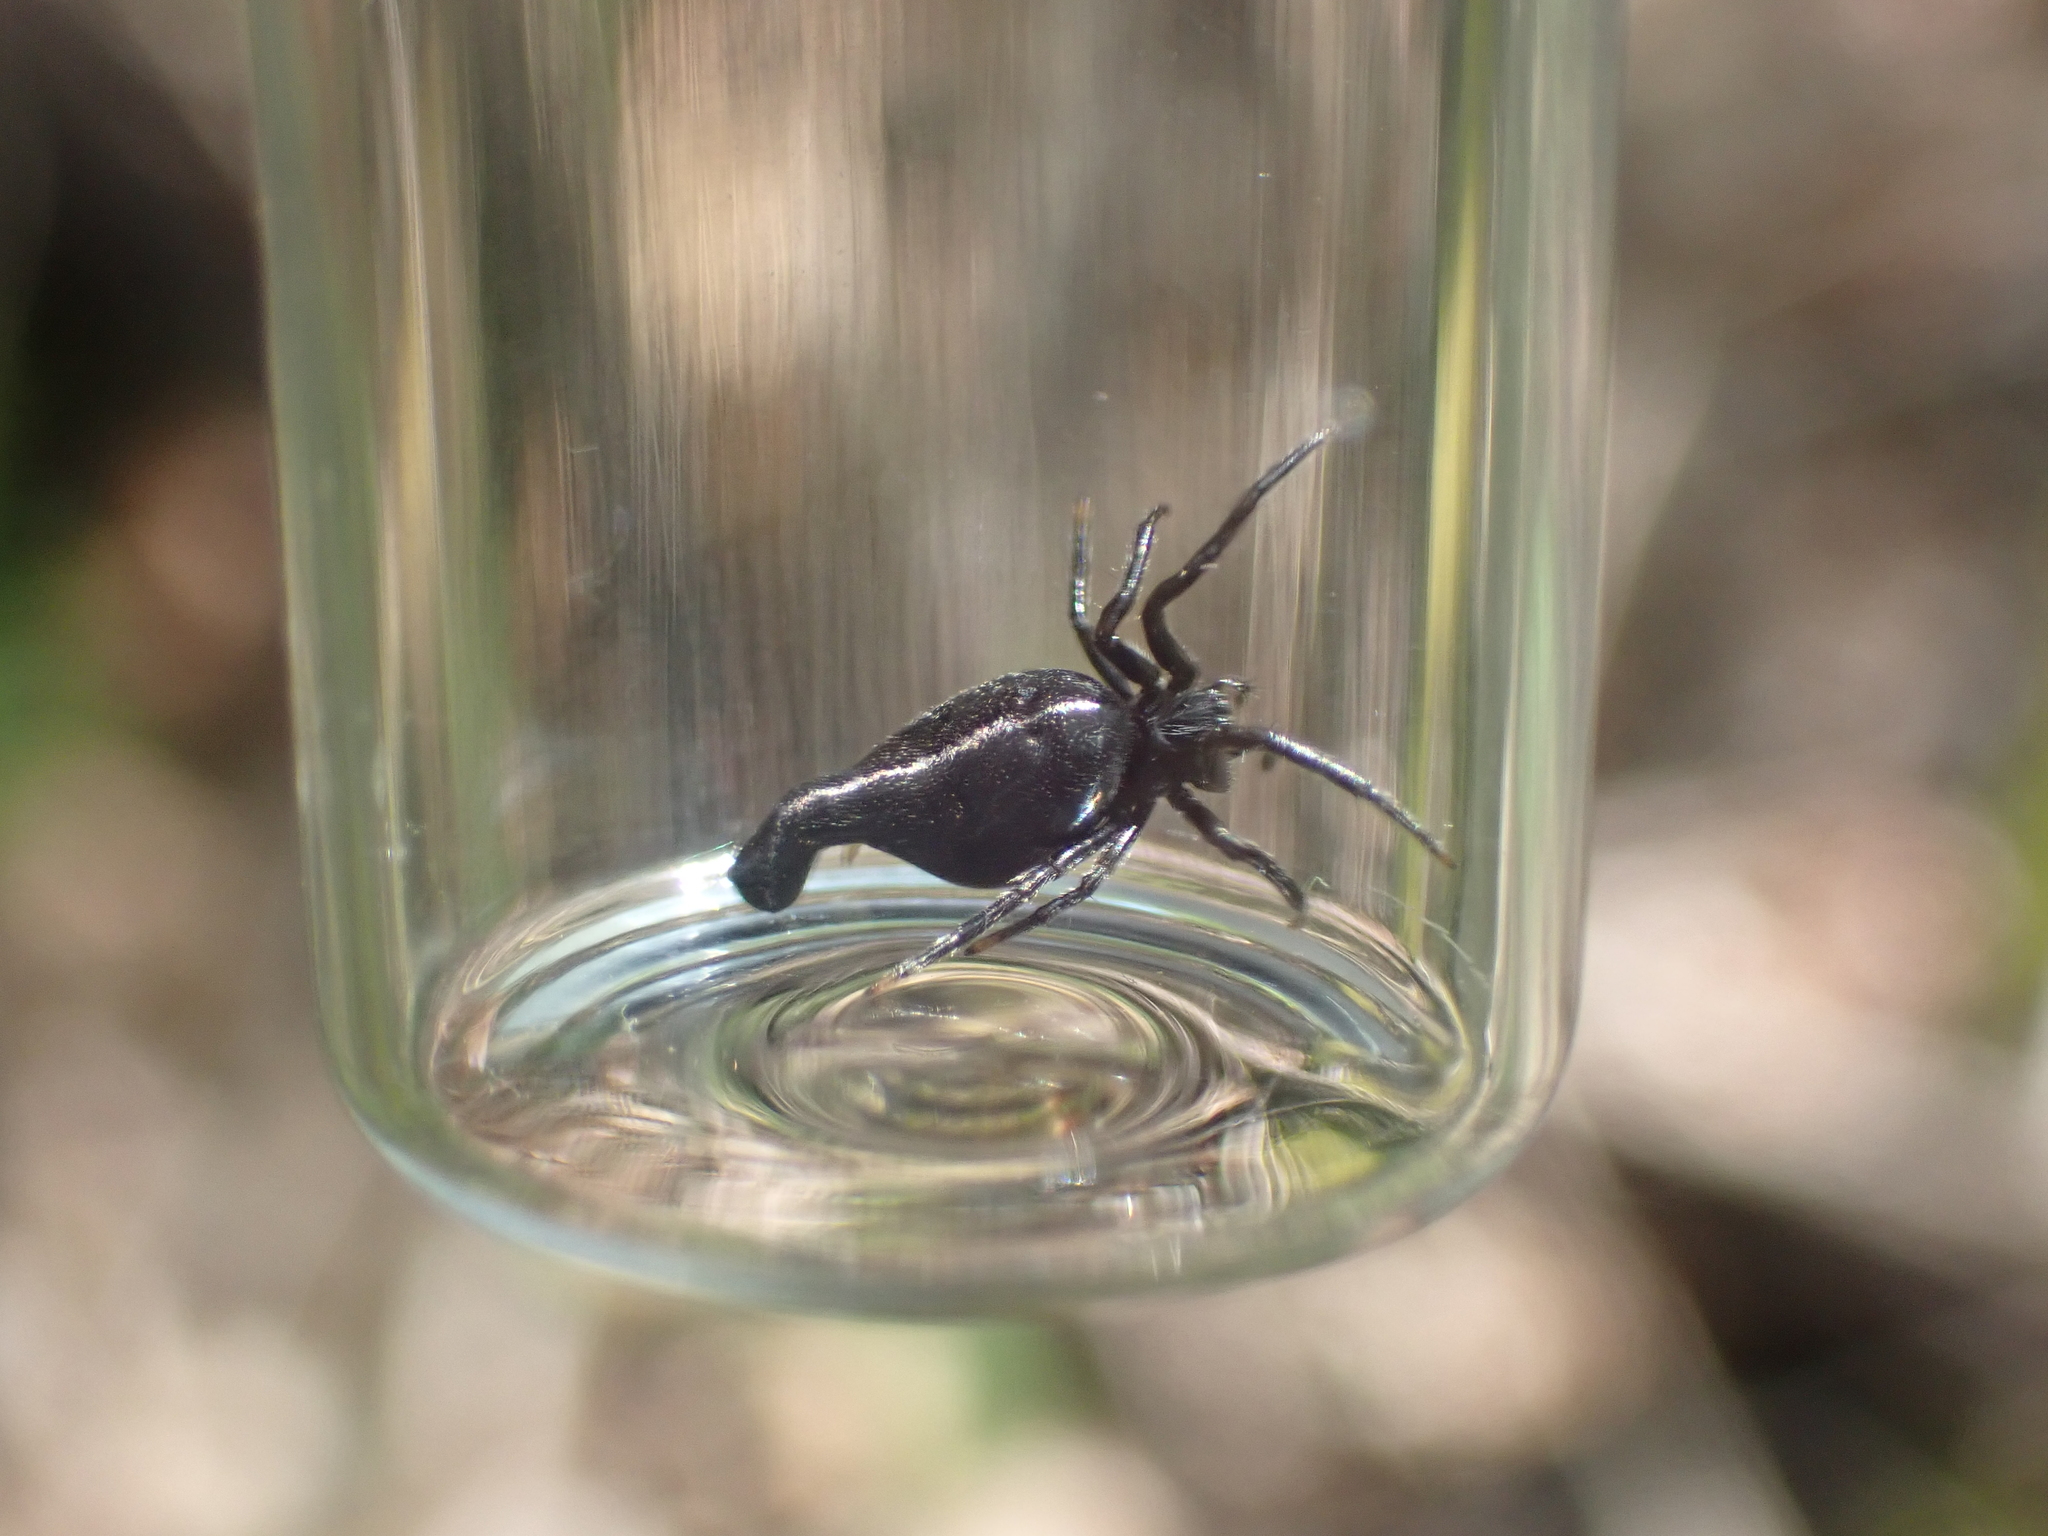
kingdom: Animalia
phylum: Arthropoda
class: Arachnida
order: Araneae
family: Araneidae
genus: Cyclosa
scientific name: Cyclosa conica
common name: Conical trashline orbweaver
